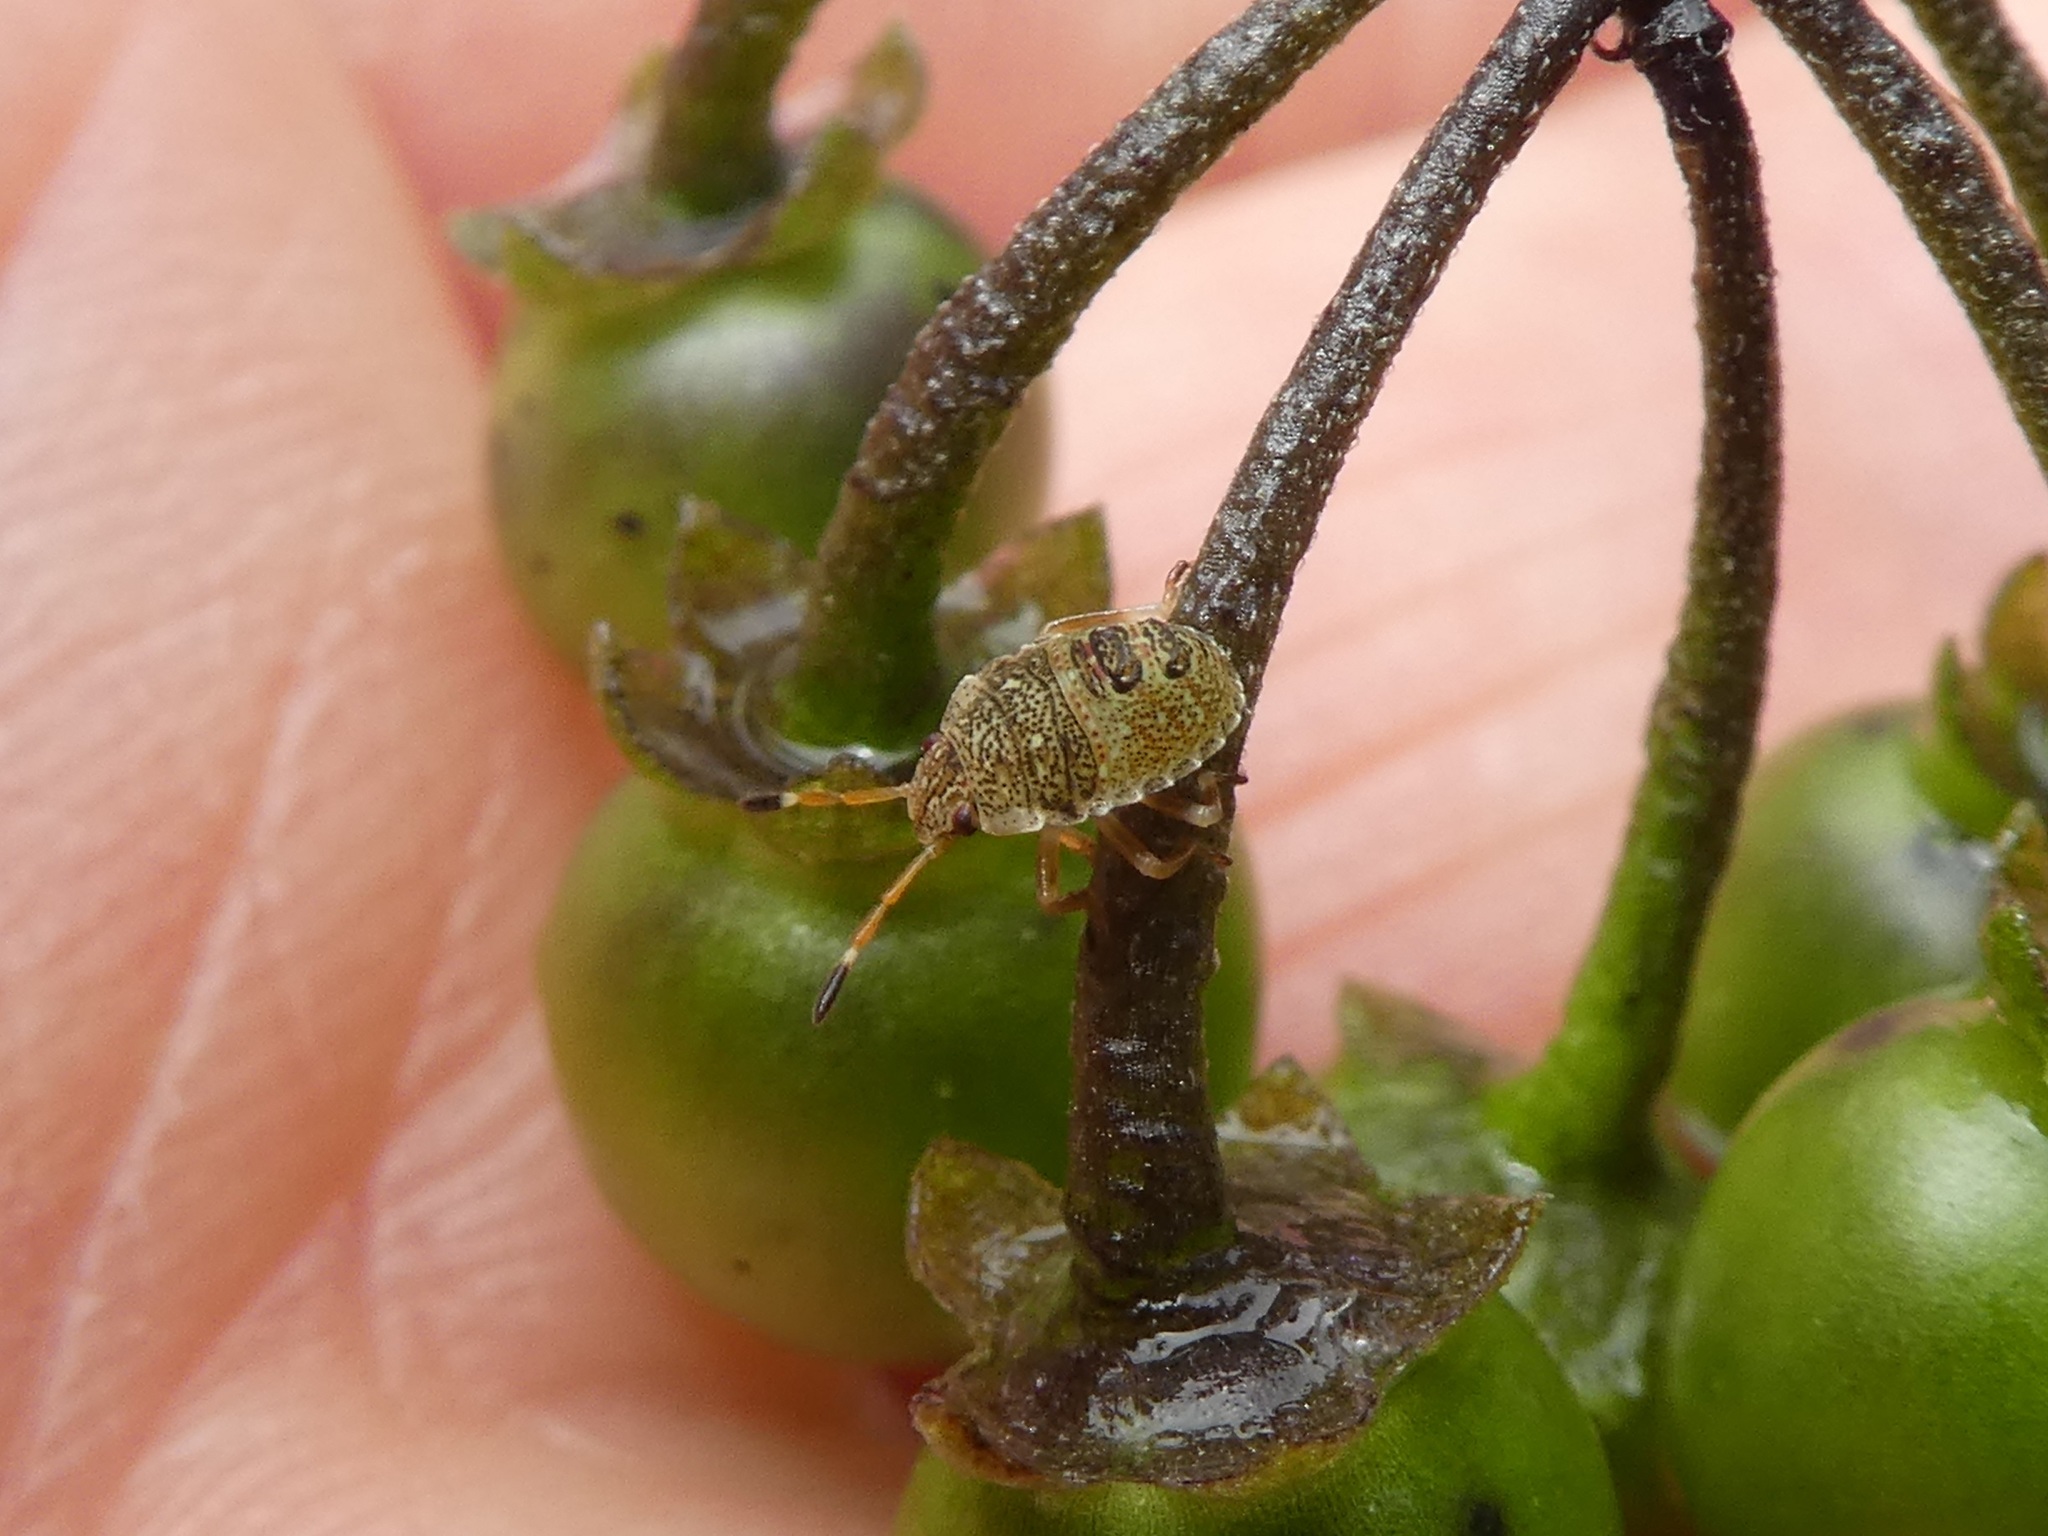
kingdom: Animalia
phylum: Arthropoda
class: Insecta
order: Hemiptera
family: Pentatomidae
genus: Cuspicona
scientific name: Cuspicona simplex
